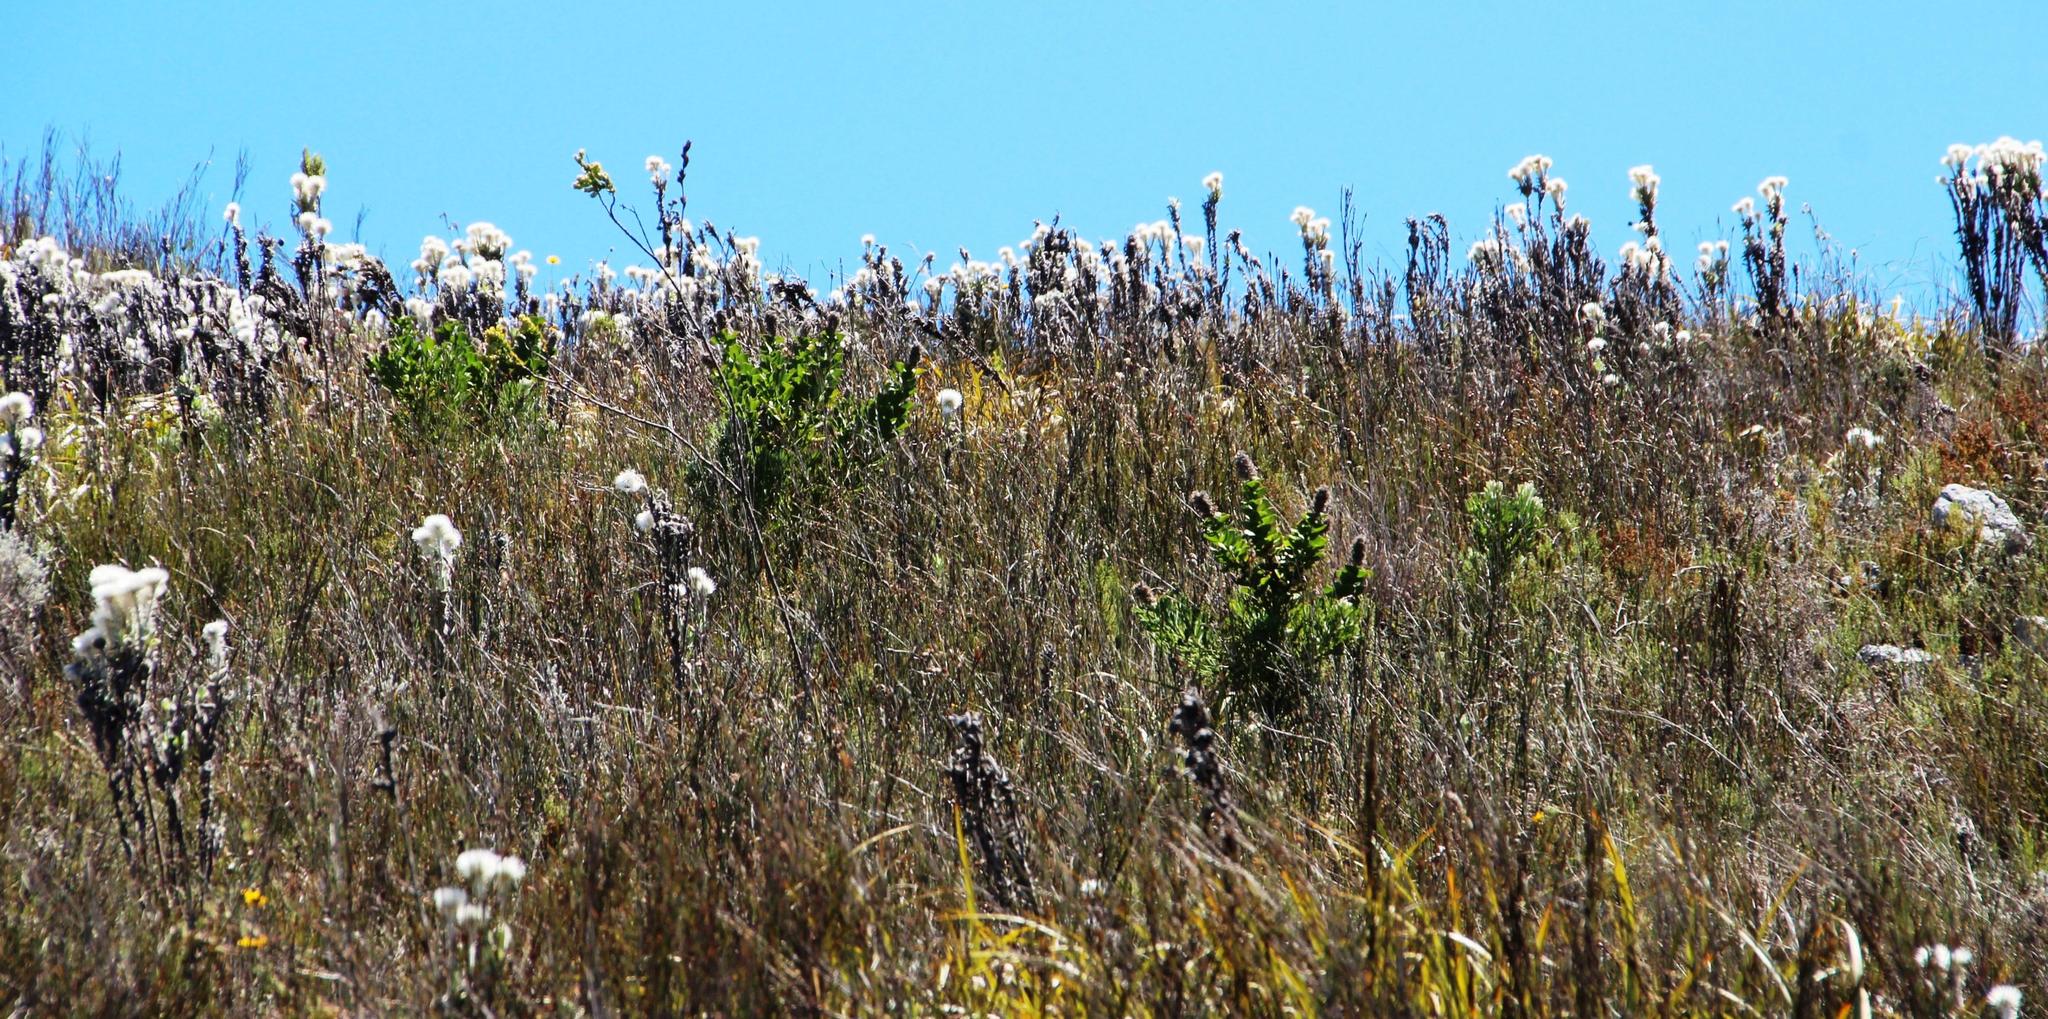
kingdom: Plantae
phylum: Tracheophyta
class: Magnoliopsida
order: Proteales
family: Proteaceae
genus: Paranomus
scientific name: Paranomus sceptrum-gustavianus
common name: King gustav's sceptre
